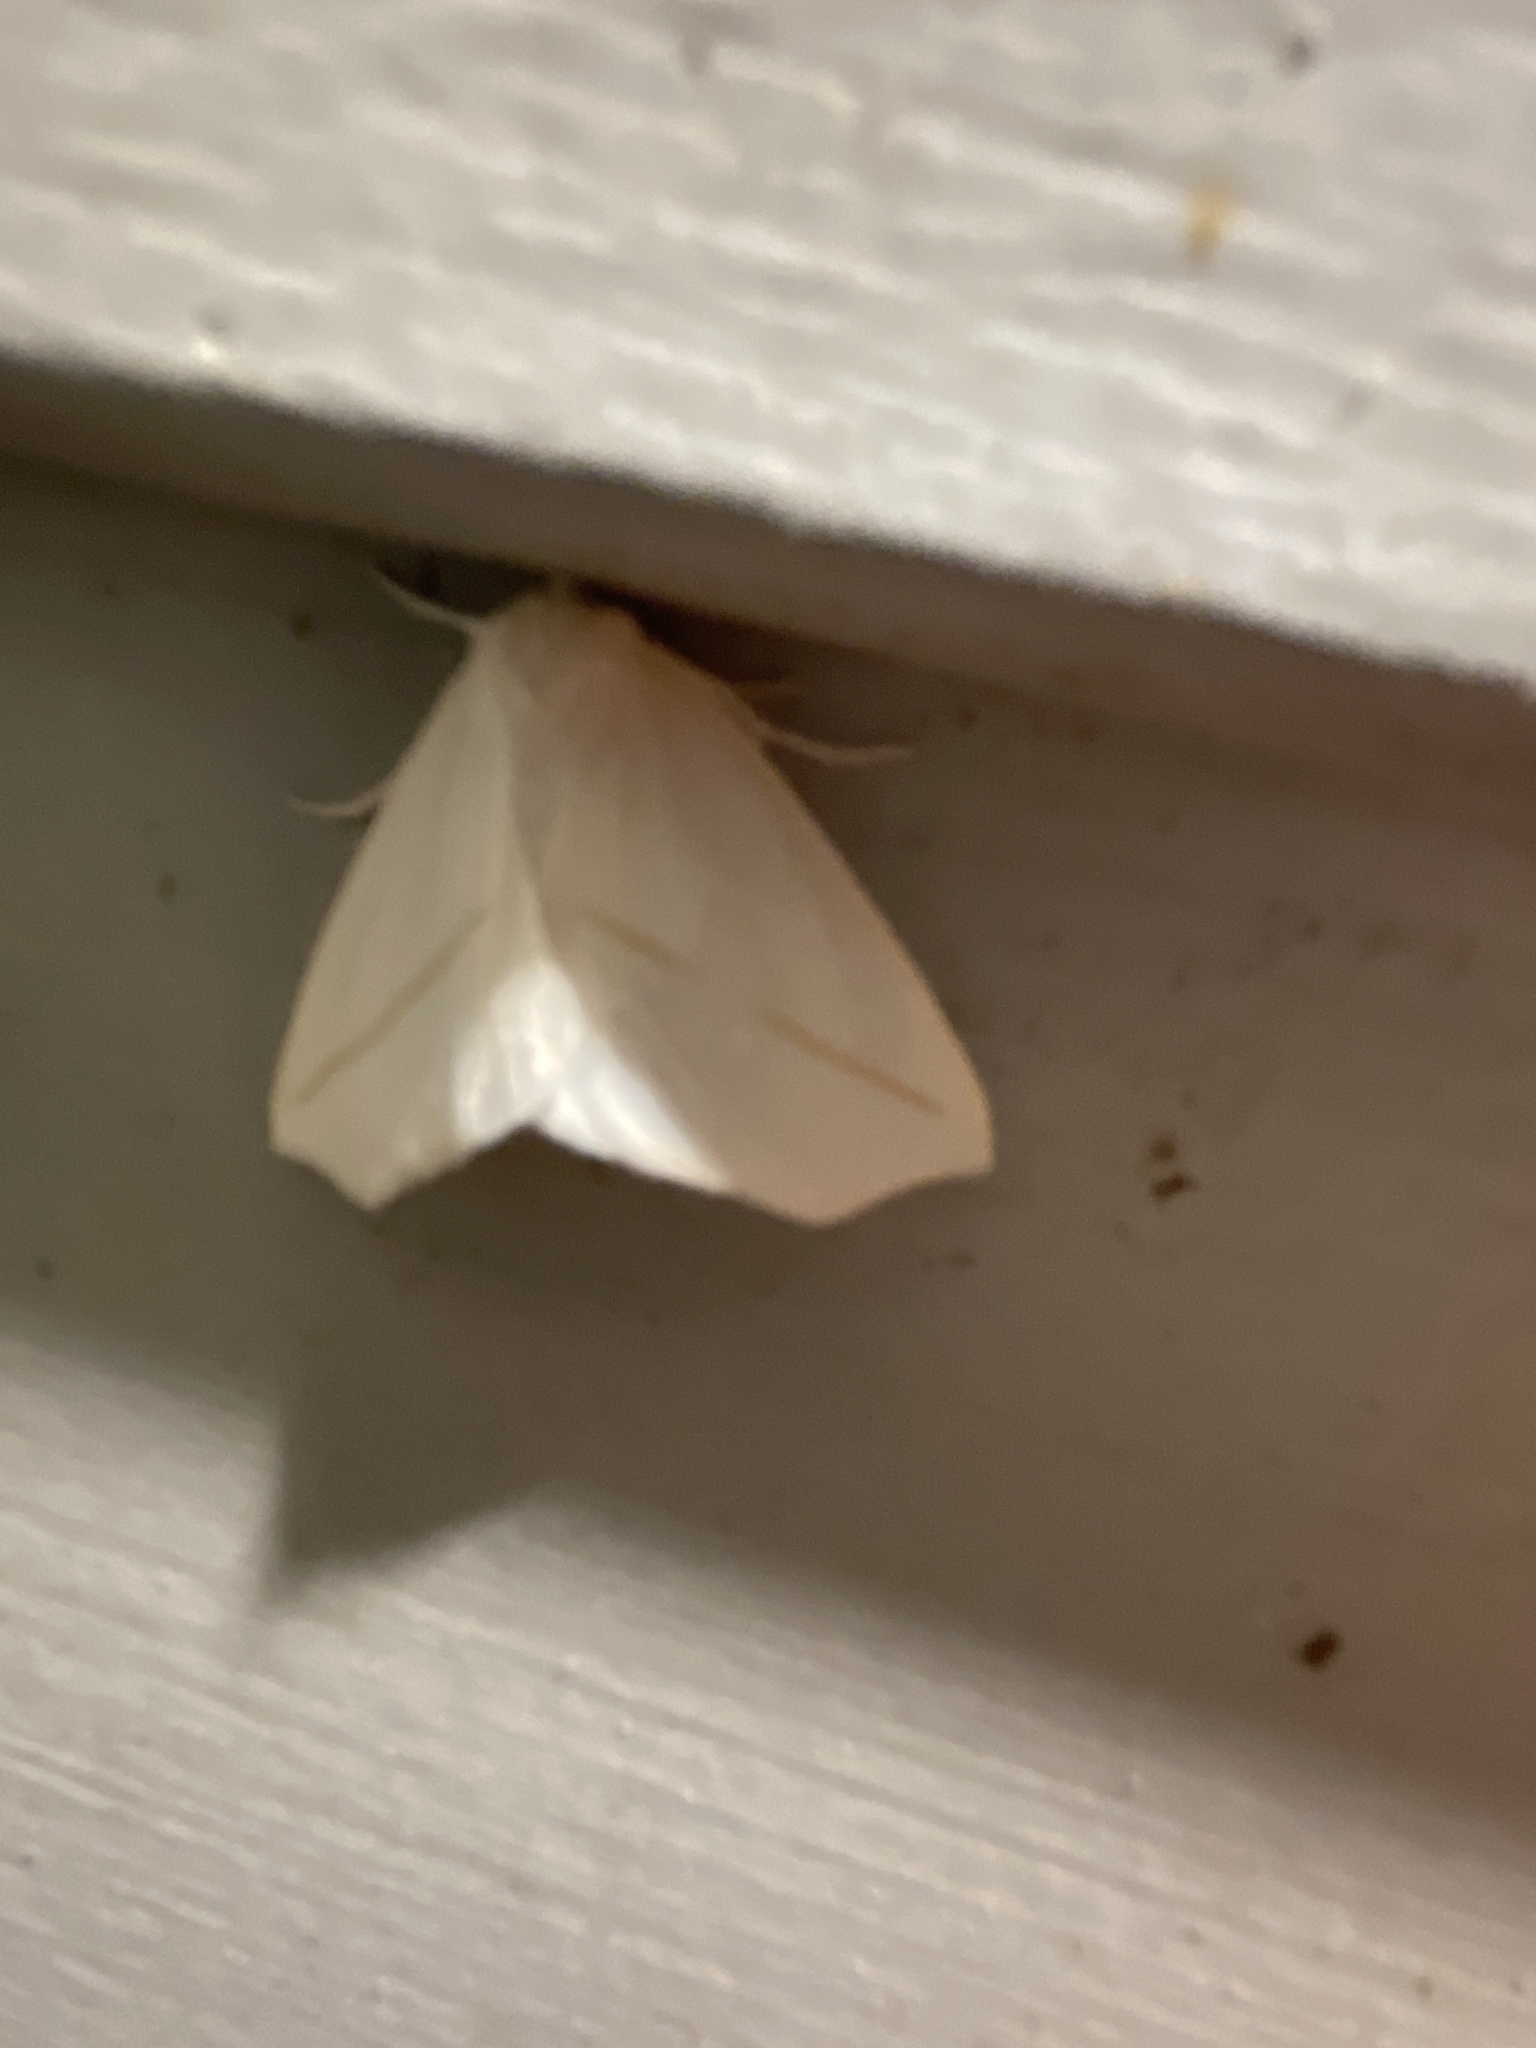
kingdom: Animalia
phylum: Arthropoda
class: Insecta
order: Lepidoptera
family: Geometridae
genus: Tetracis
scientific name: Tetracis cachexiata
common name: White slant-line
